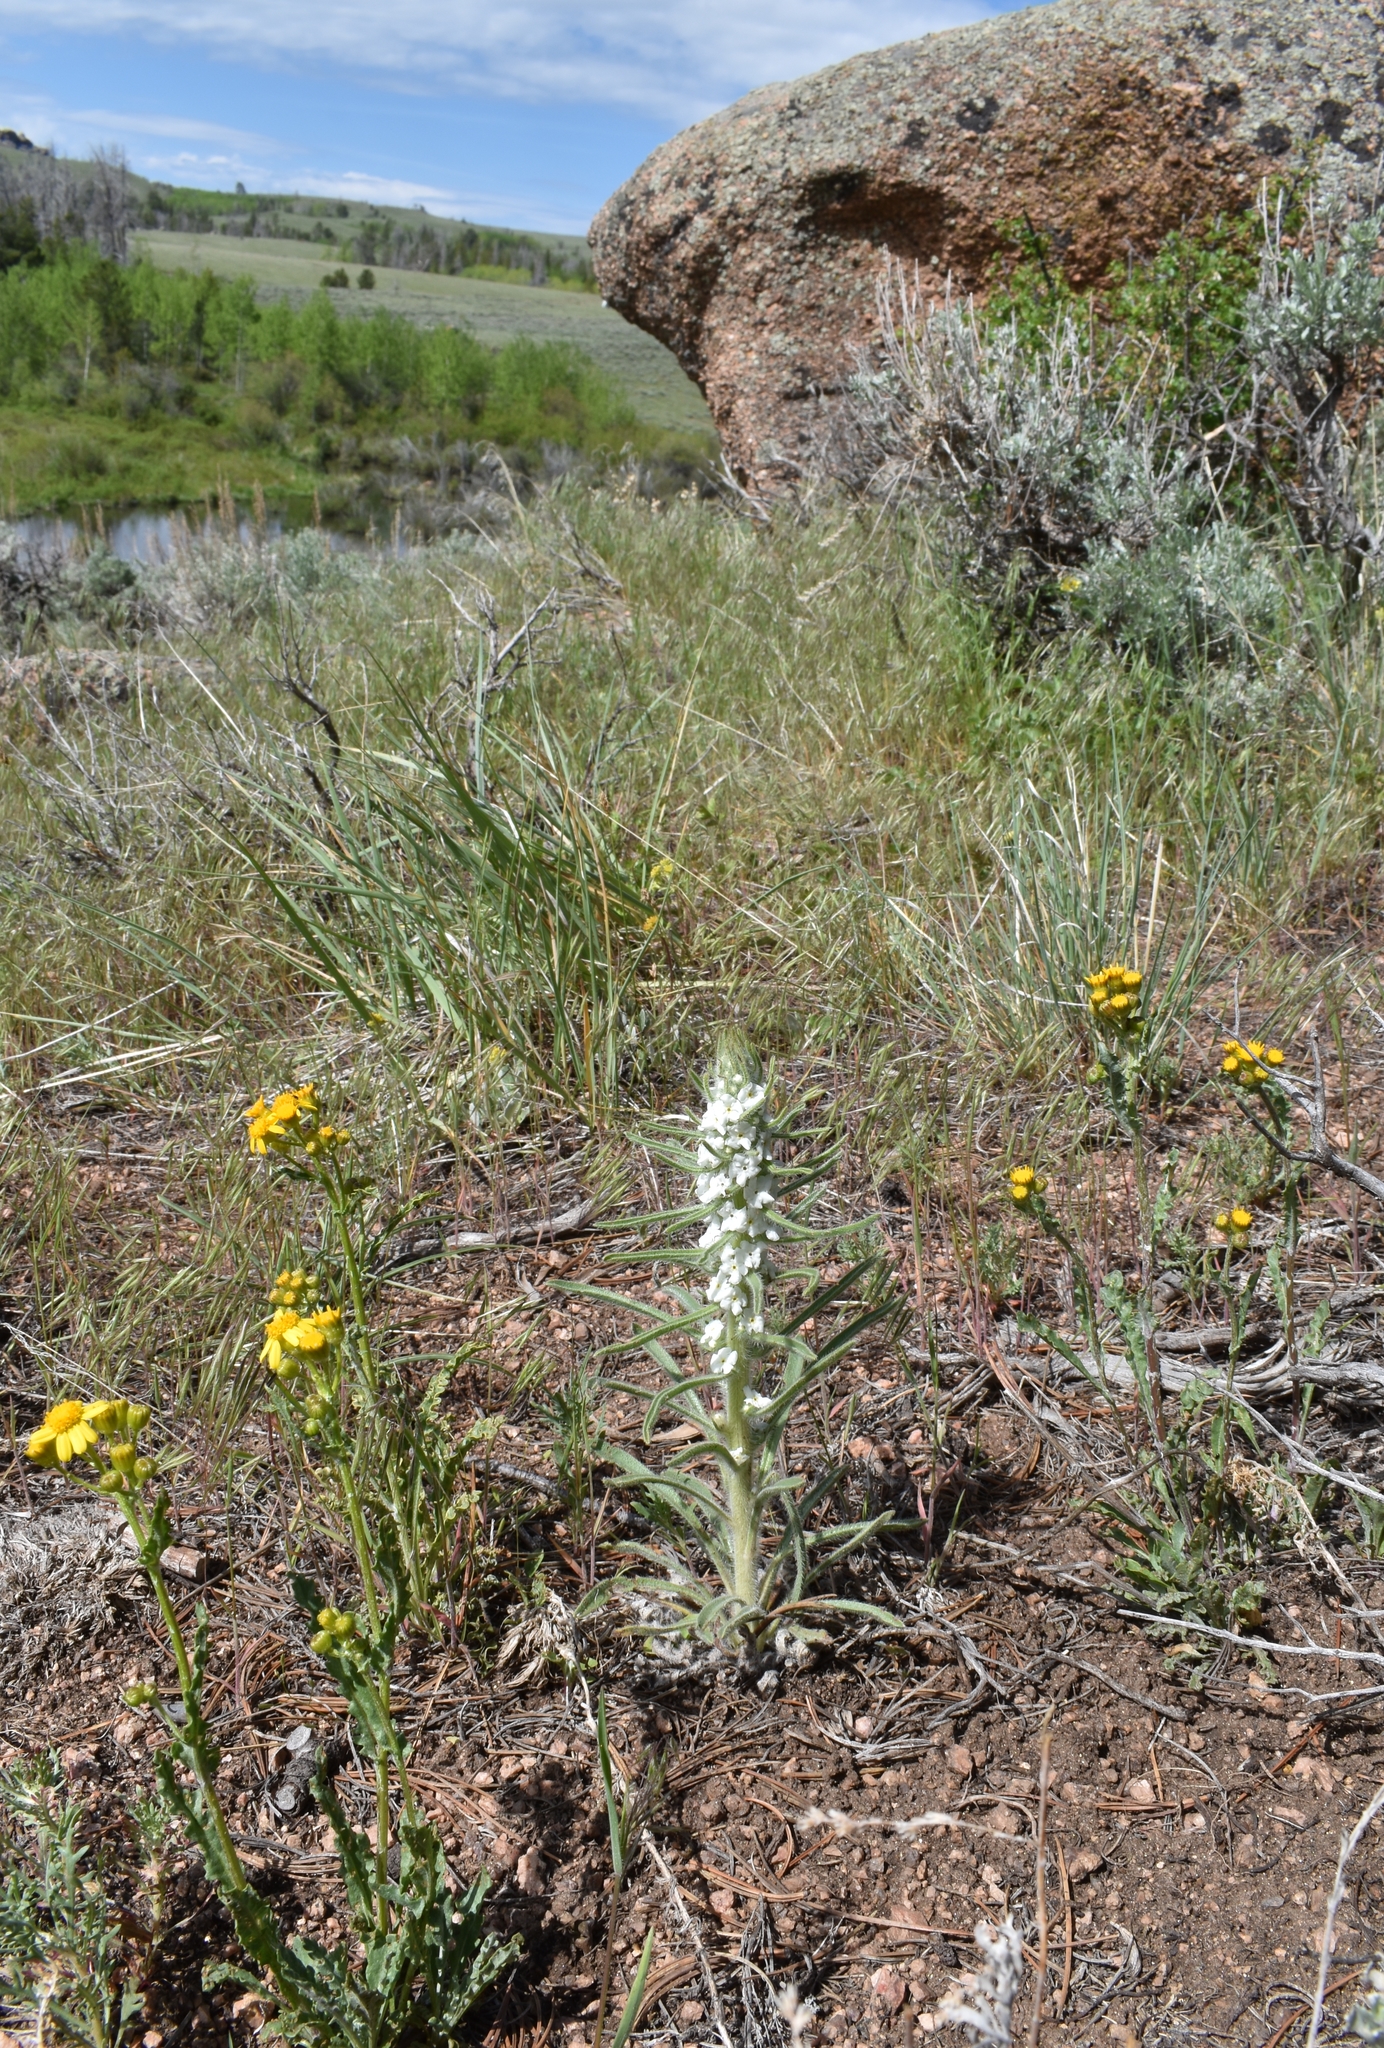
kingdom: Plantae
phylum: Tracheophyta
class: Magnoliopsida
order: Boraginales
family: Boraginaceae
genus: Oreocarya
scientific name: Oreocarya virgata
